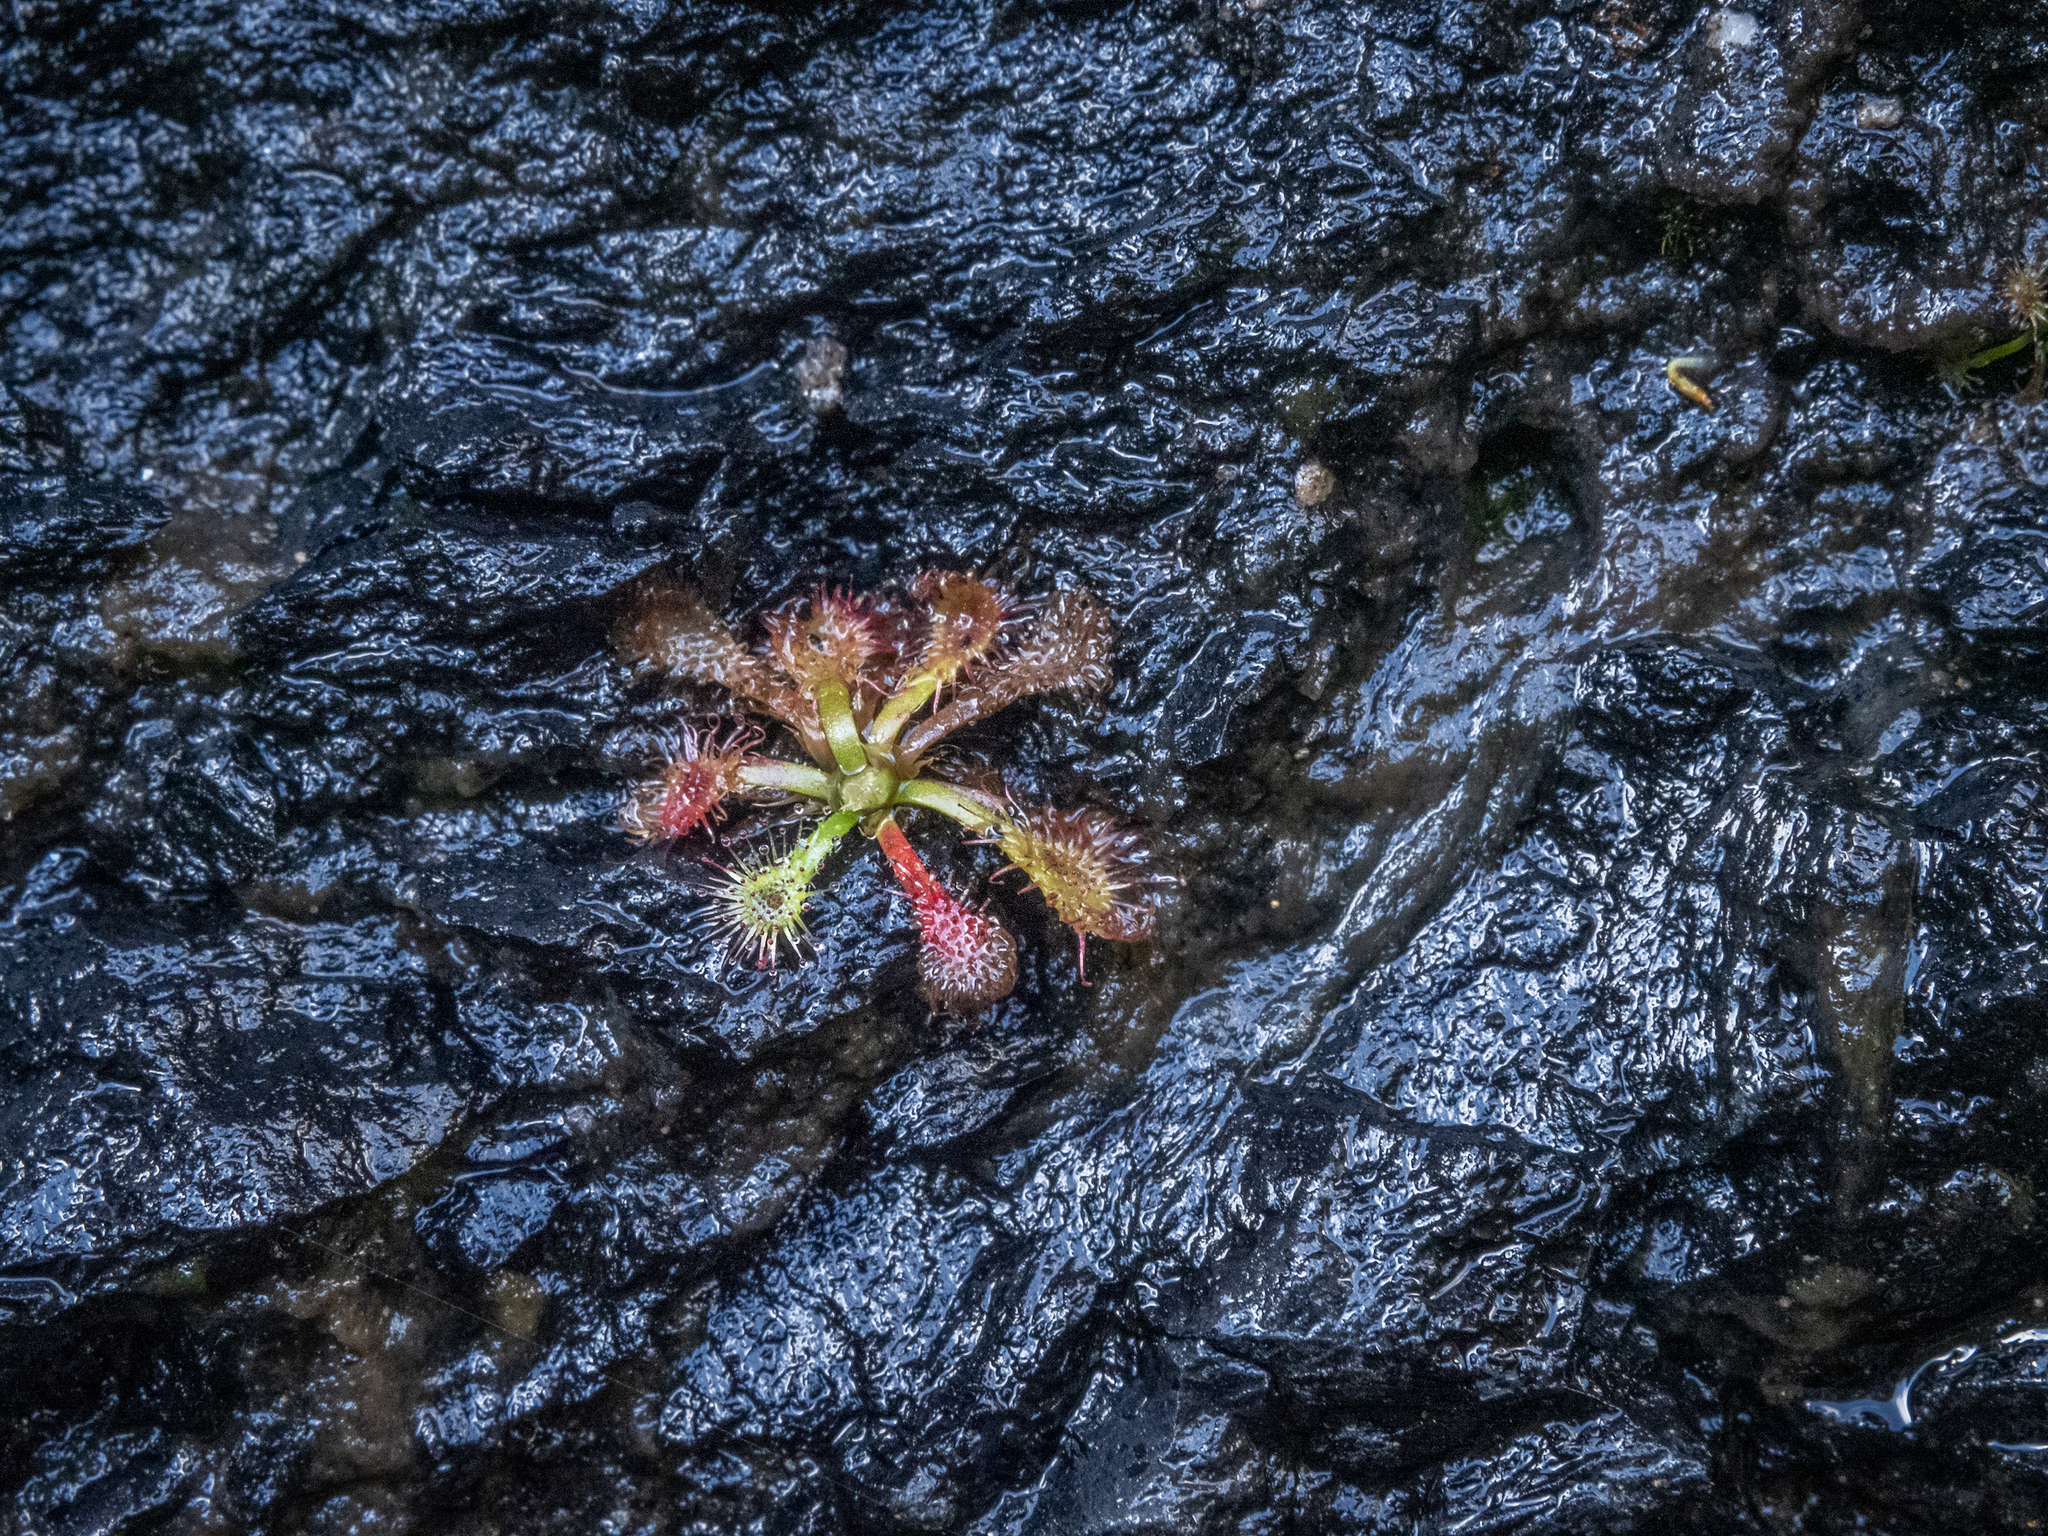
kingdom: Plantae
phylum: Tracheophyta
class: Magnoliopsida
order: Caryophyllales
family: Droseraceae
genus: Drosera
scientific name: Drosera spatulata
